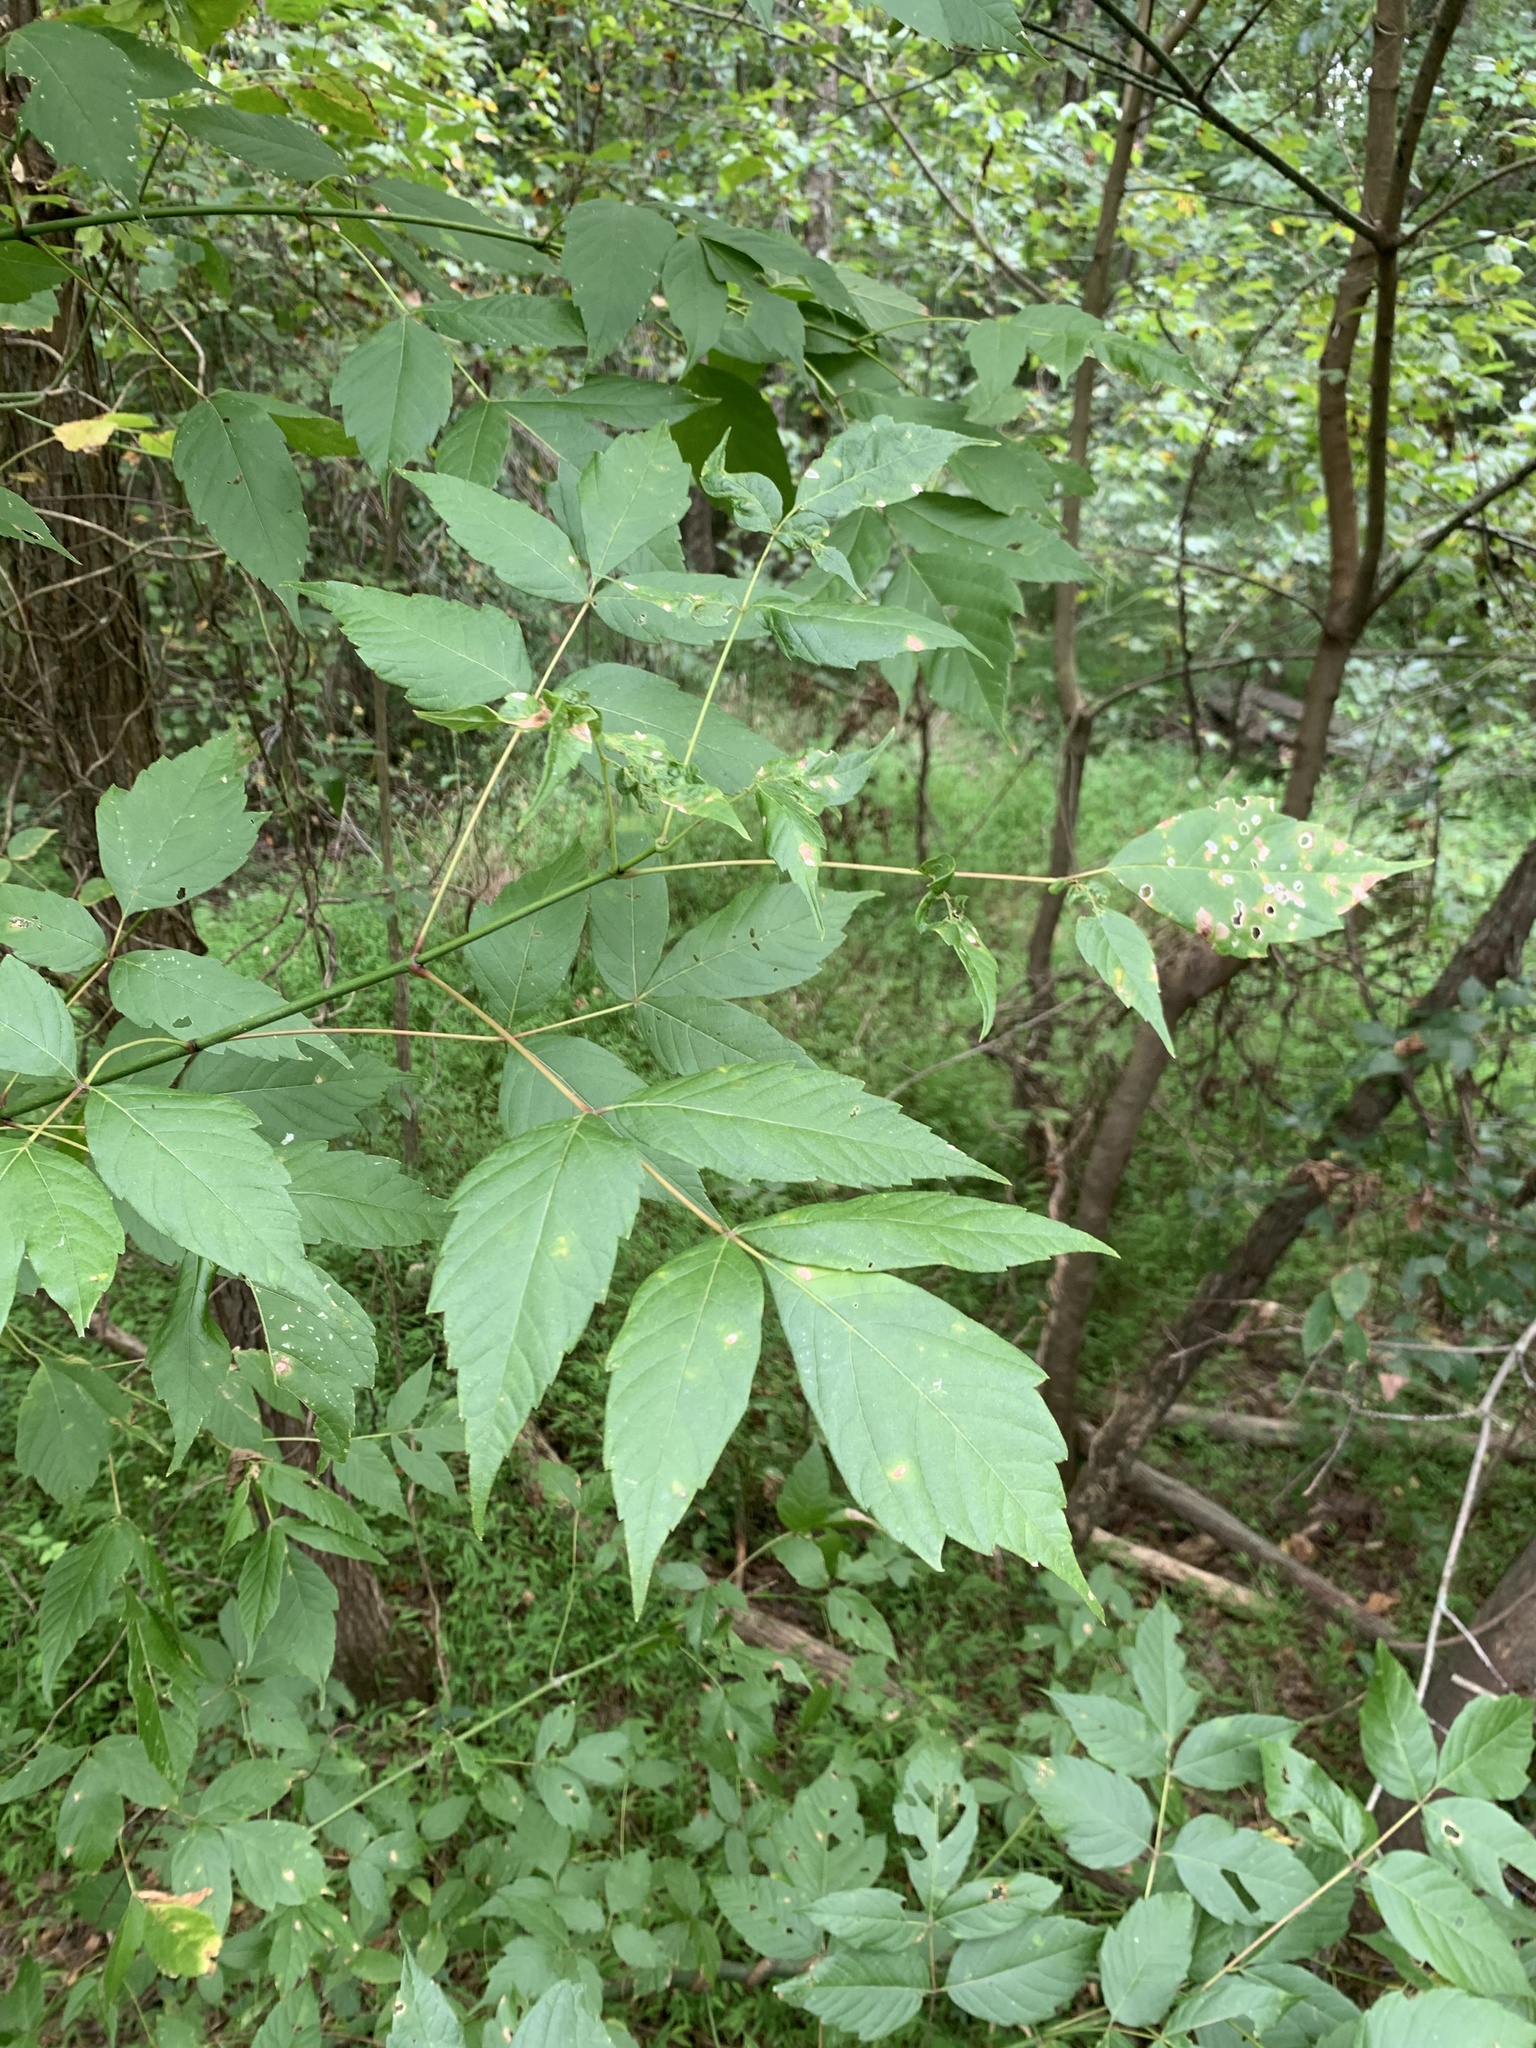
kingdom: Plantae
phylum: Tracheophyta
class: Magnoliopsida
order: Sapindales
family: Sapindaceae
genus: Acer
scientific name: Acer negundo
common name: Ashleaf maple
